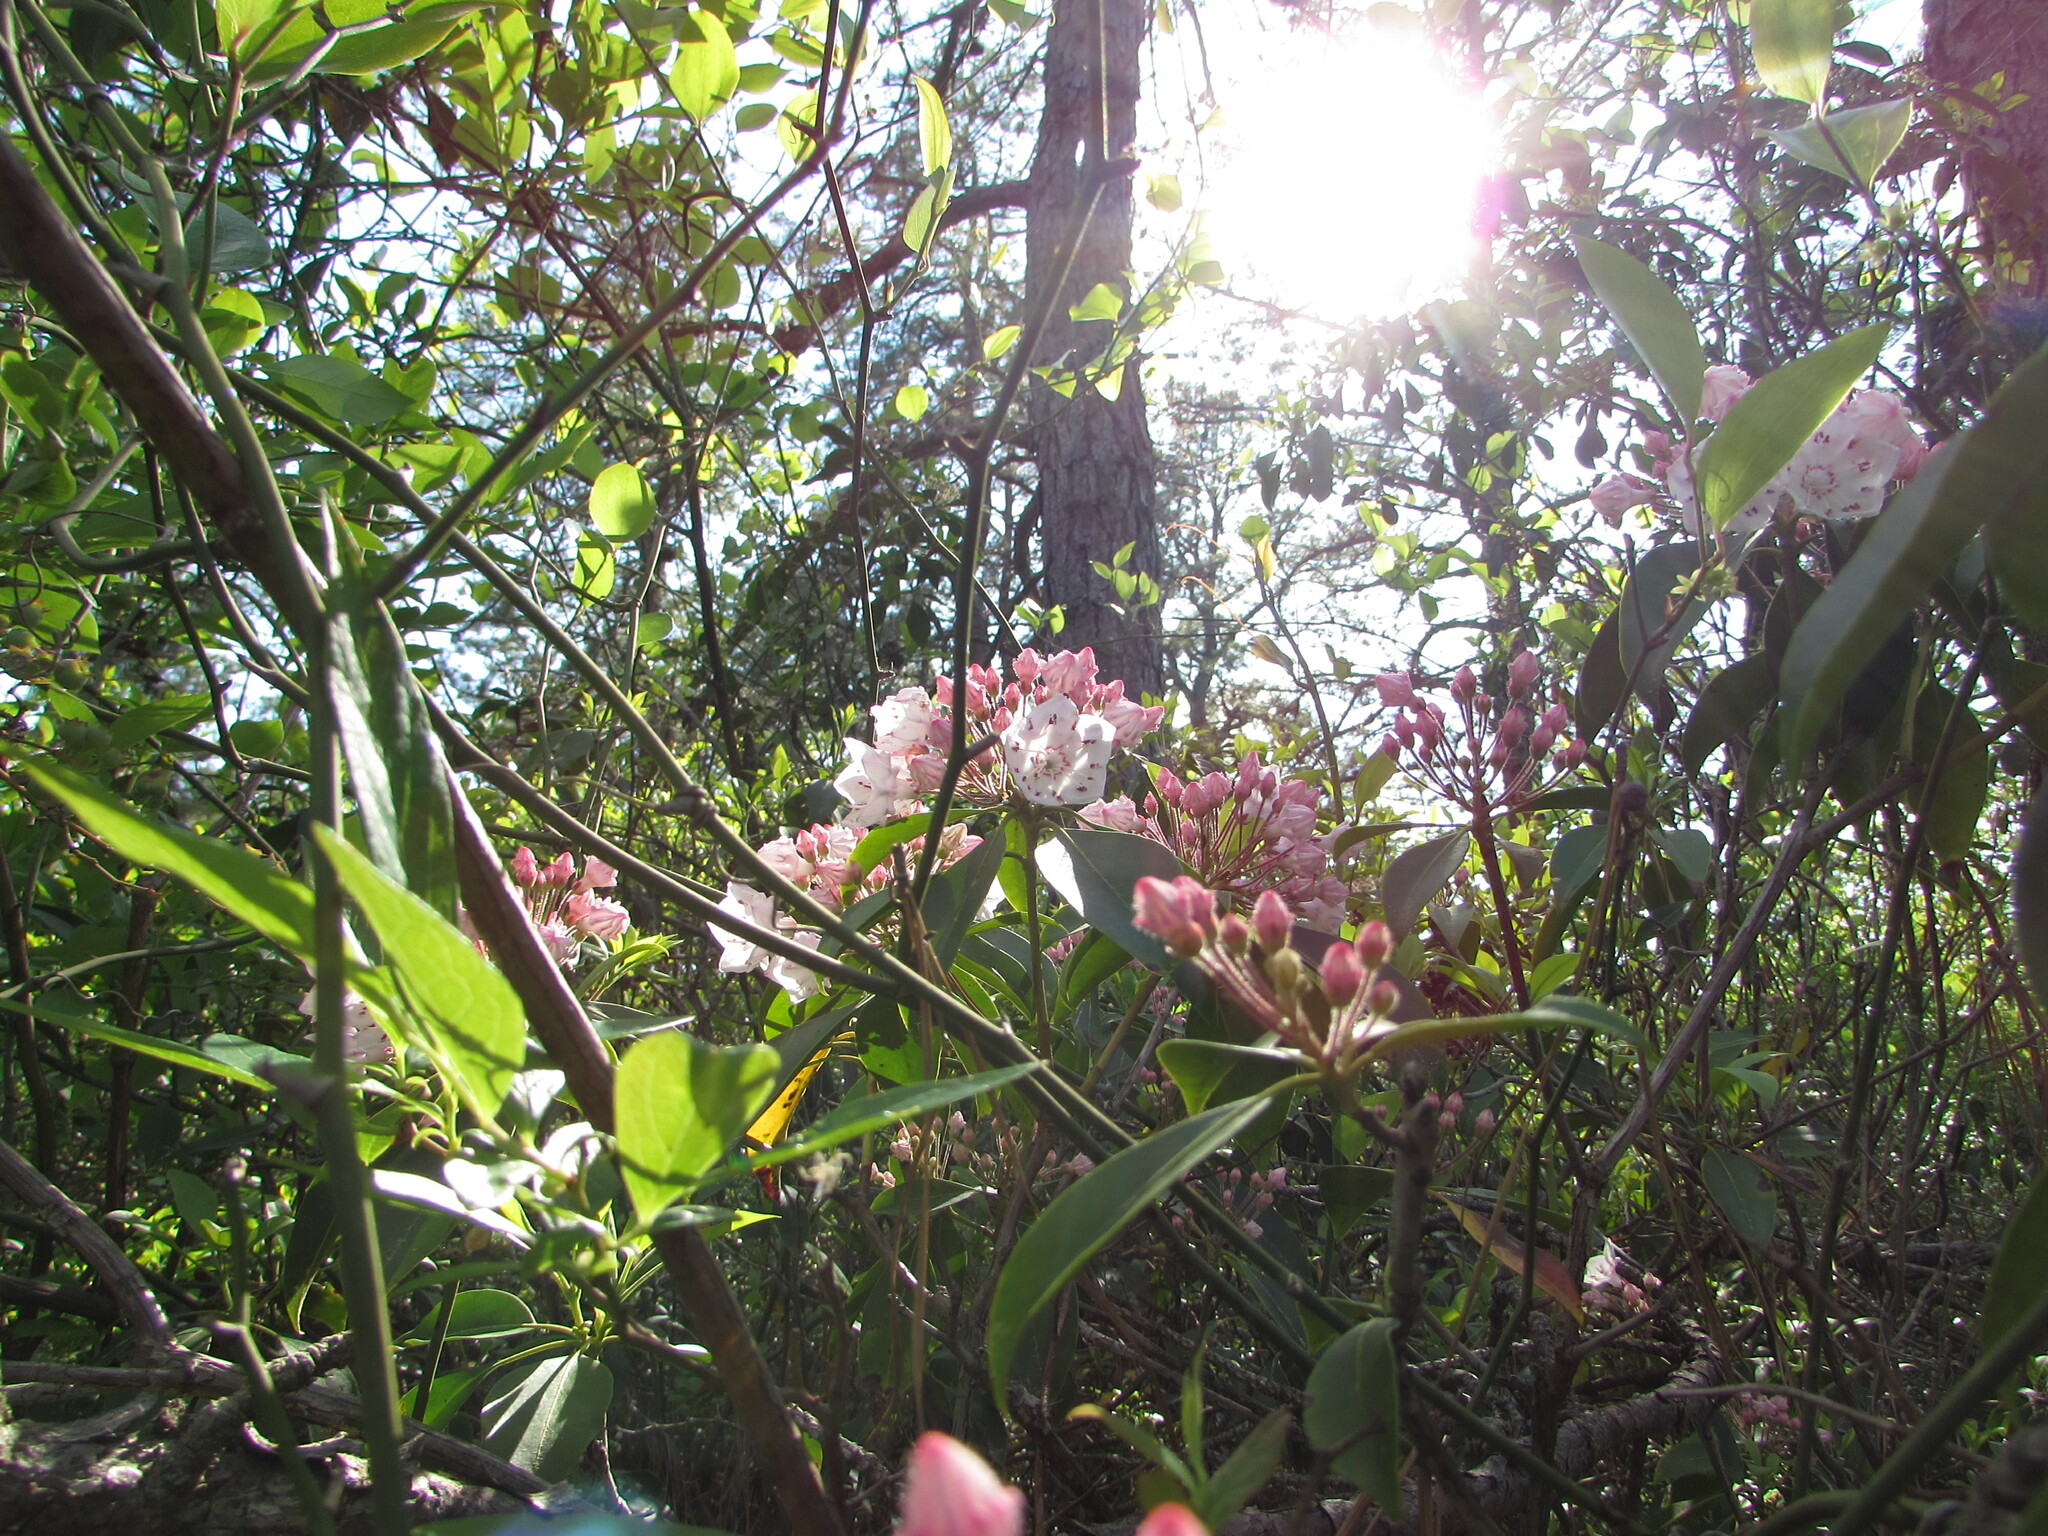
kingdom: Plantae
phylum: Tracheophyta
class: Magnoliopsida
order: Ericales
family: Ericaceae
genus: Kalmia
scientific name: Kalmia latifolia
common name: Mountain-laurel
